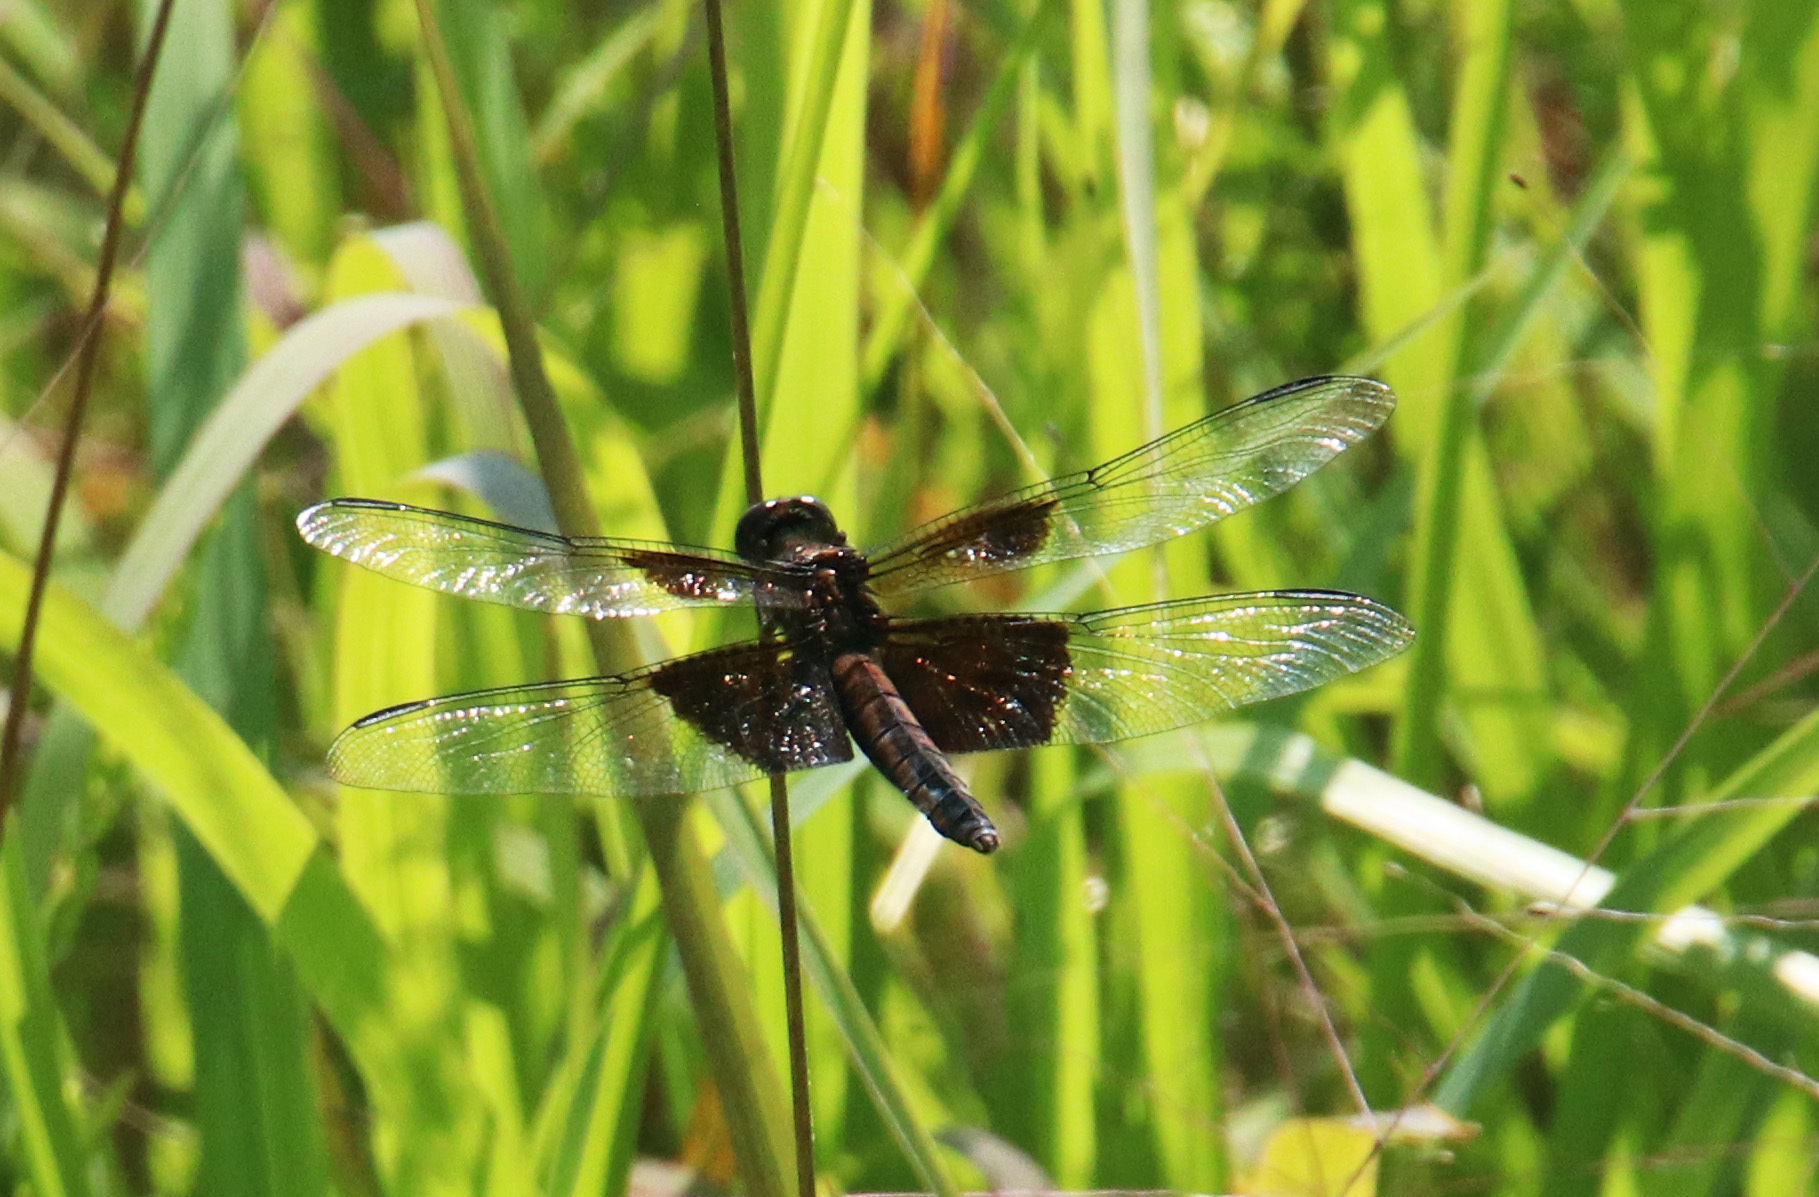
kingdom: Animalia
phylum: Arthropoda
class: Insecta
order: Odonata
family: Libellulidae
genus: Libellula
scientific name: Libellula luctuosa
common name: Widow skimmer
